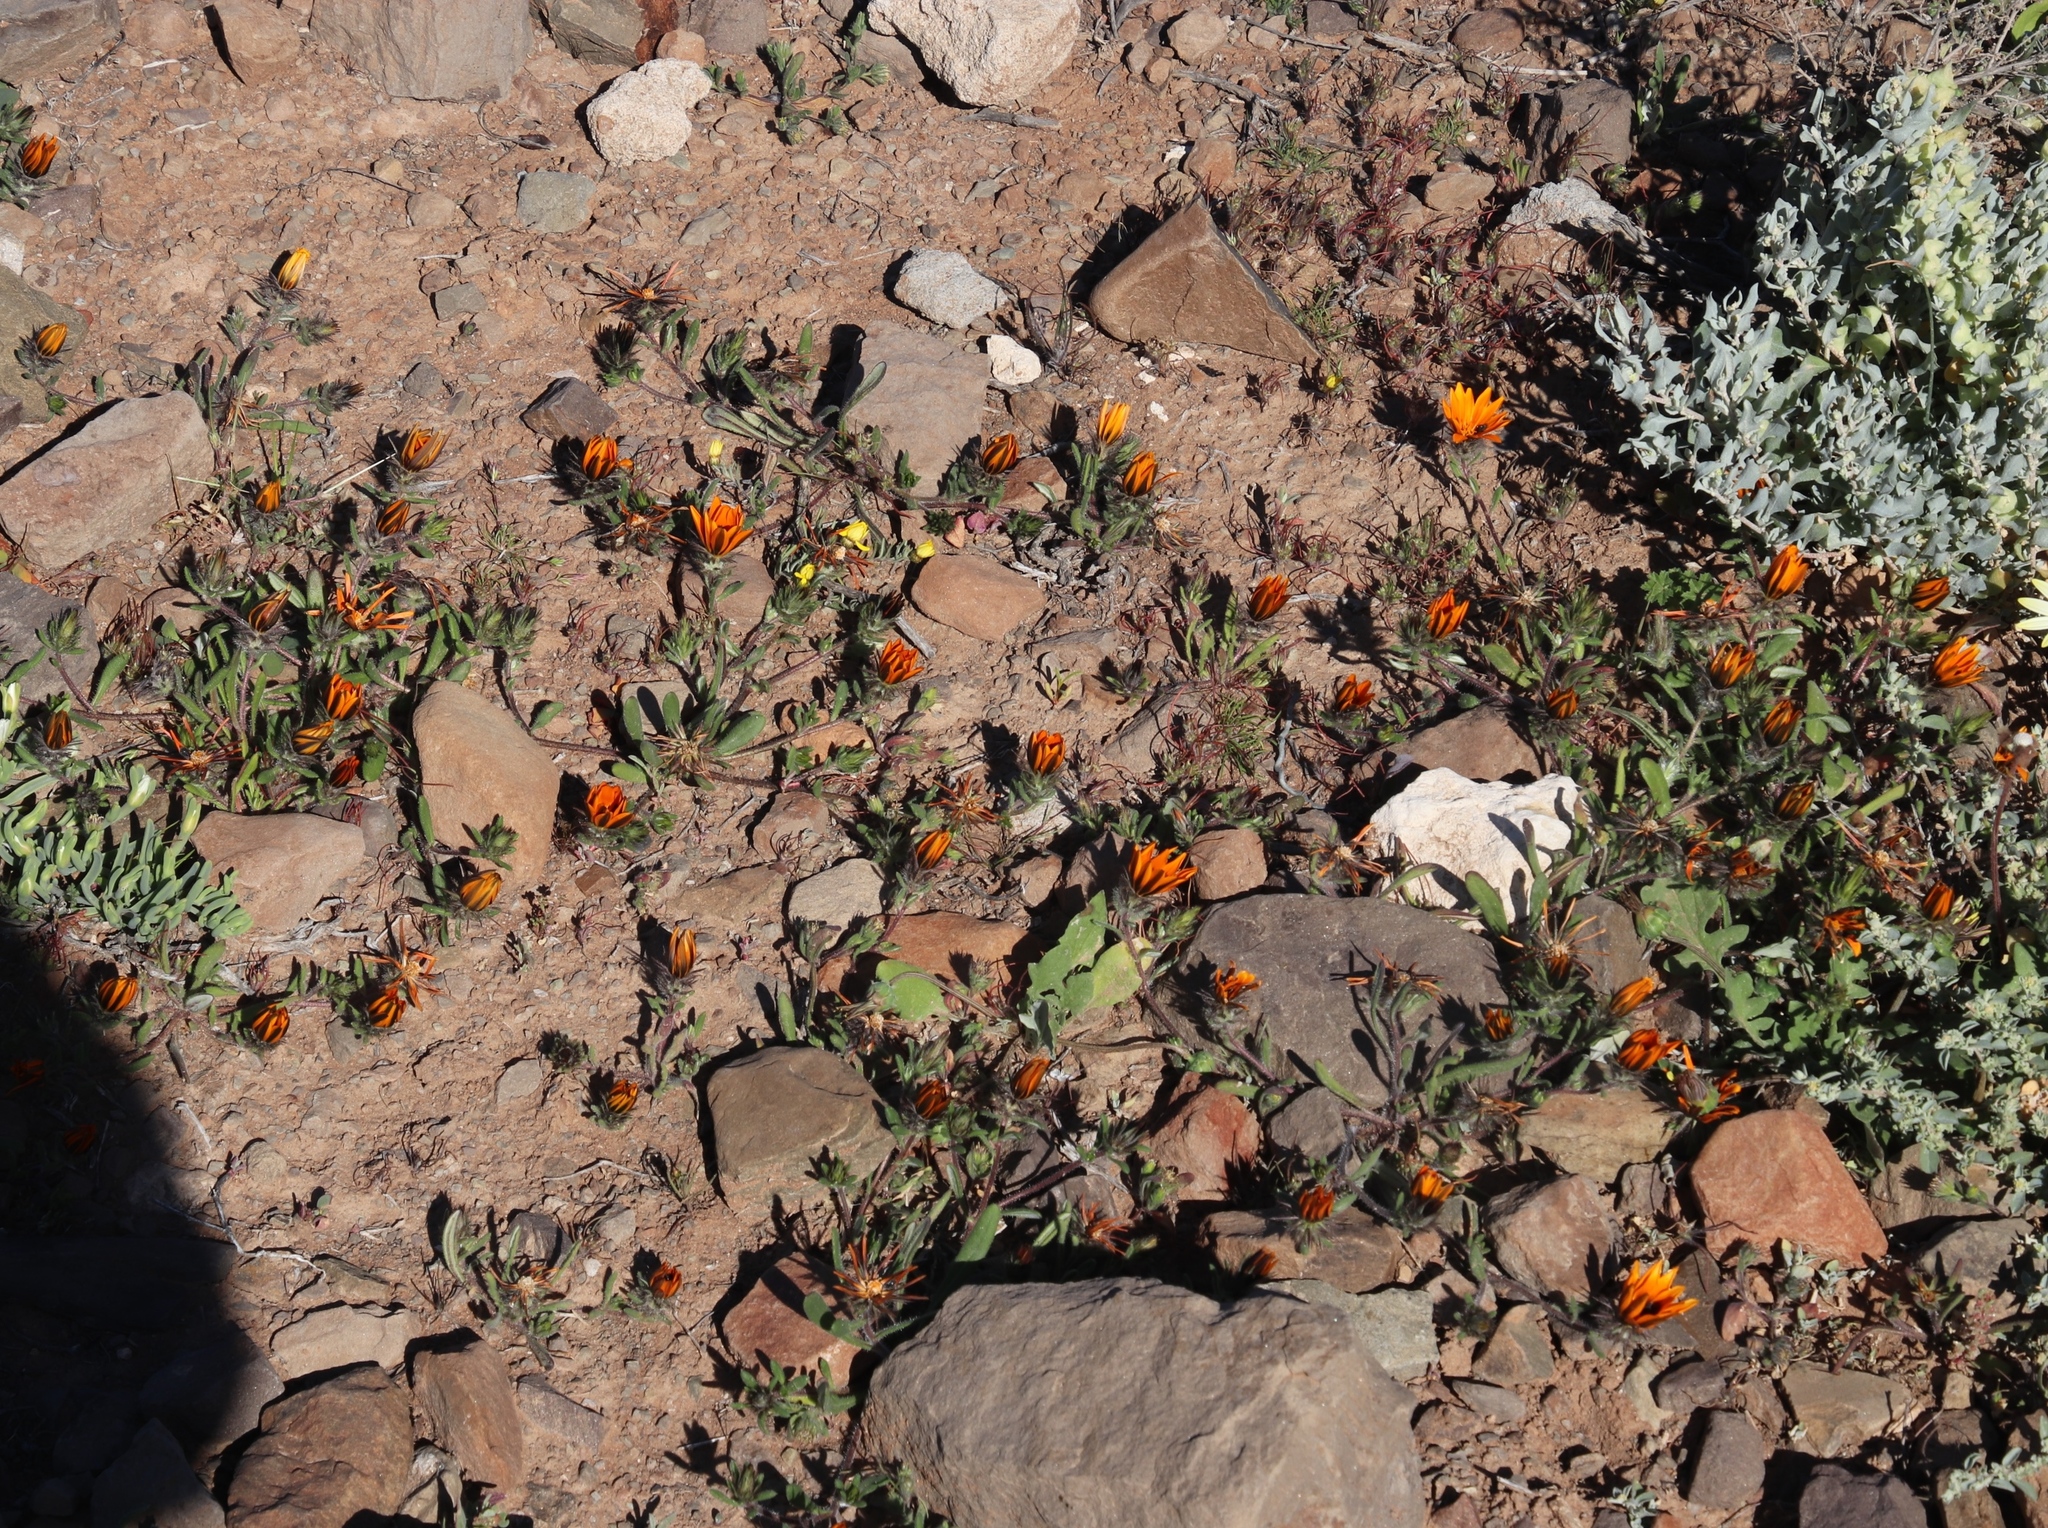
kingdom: Plantae
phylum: Tracheophyta
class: Magnoliopsida
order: Asterales
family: Asteraceae
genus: Gorteria
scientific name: Gorteria diffusa
